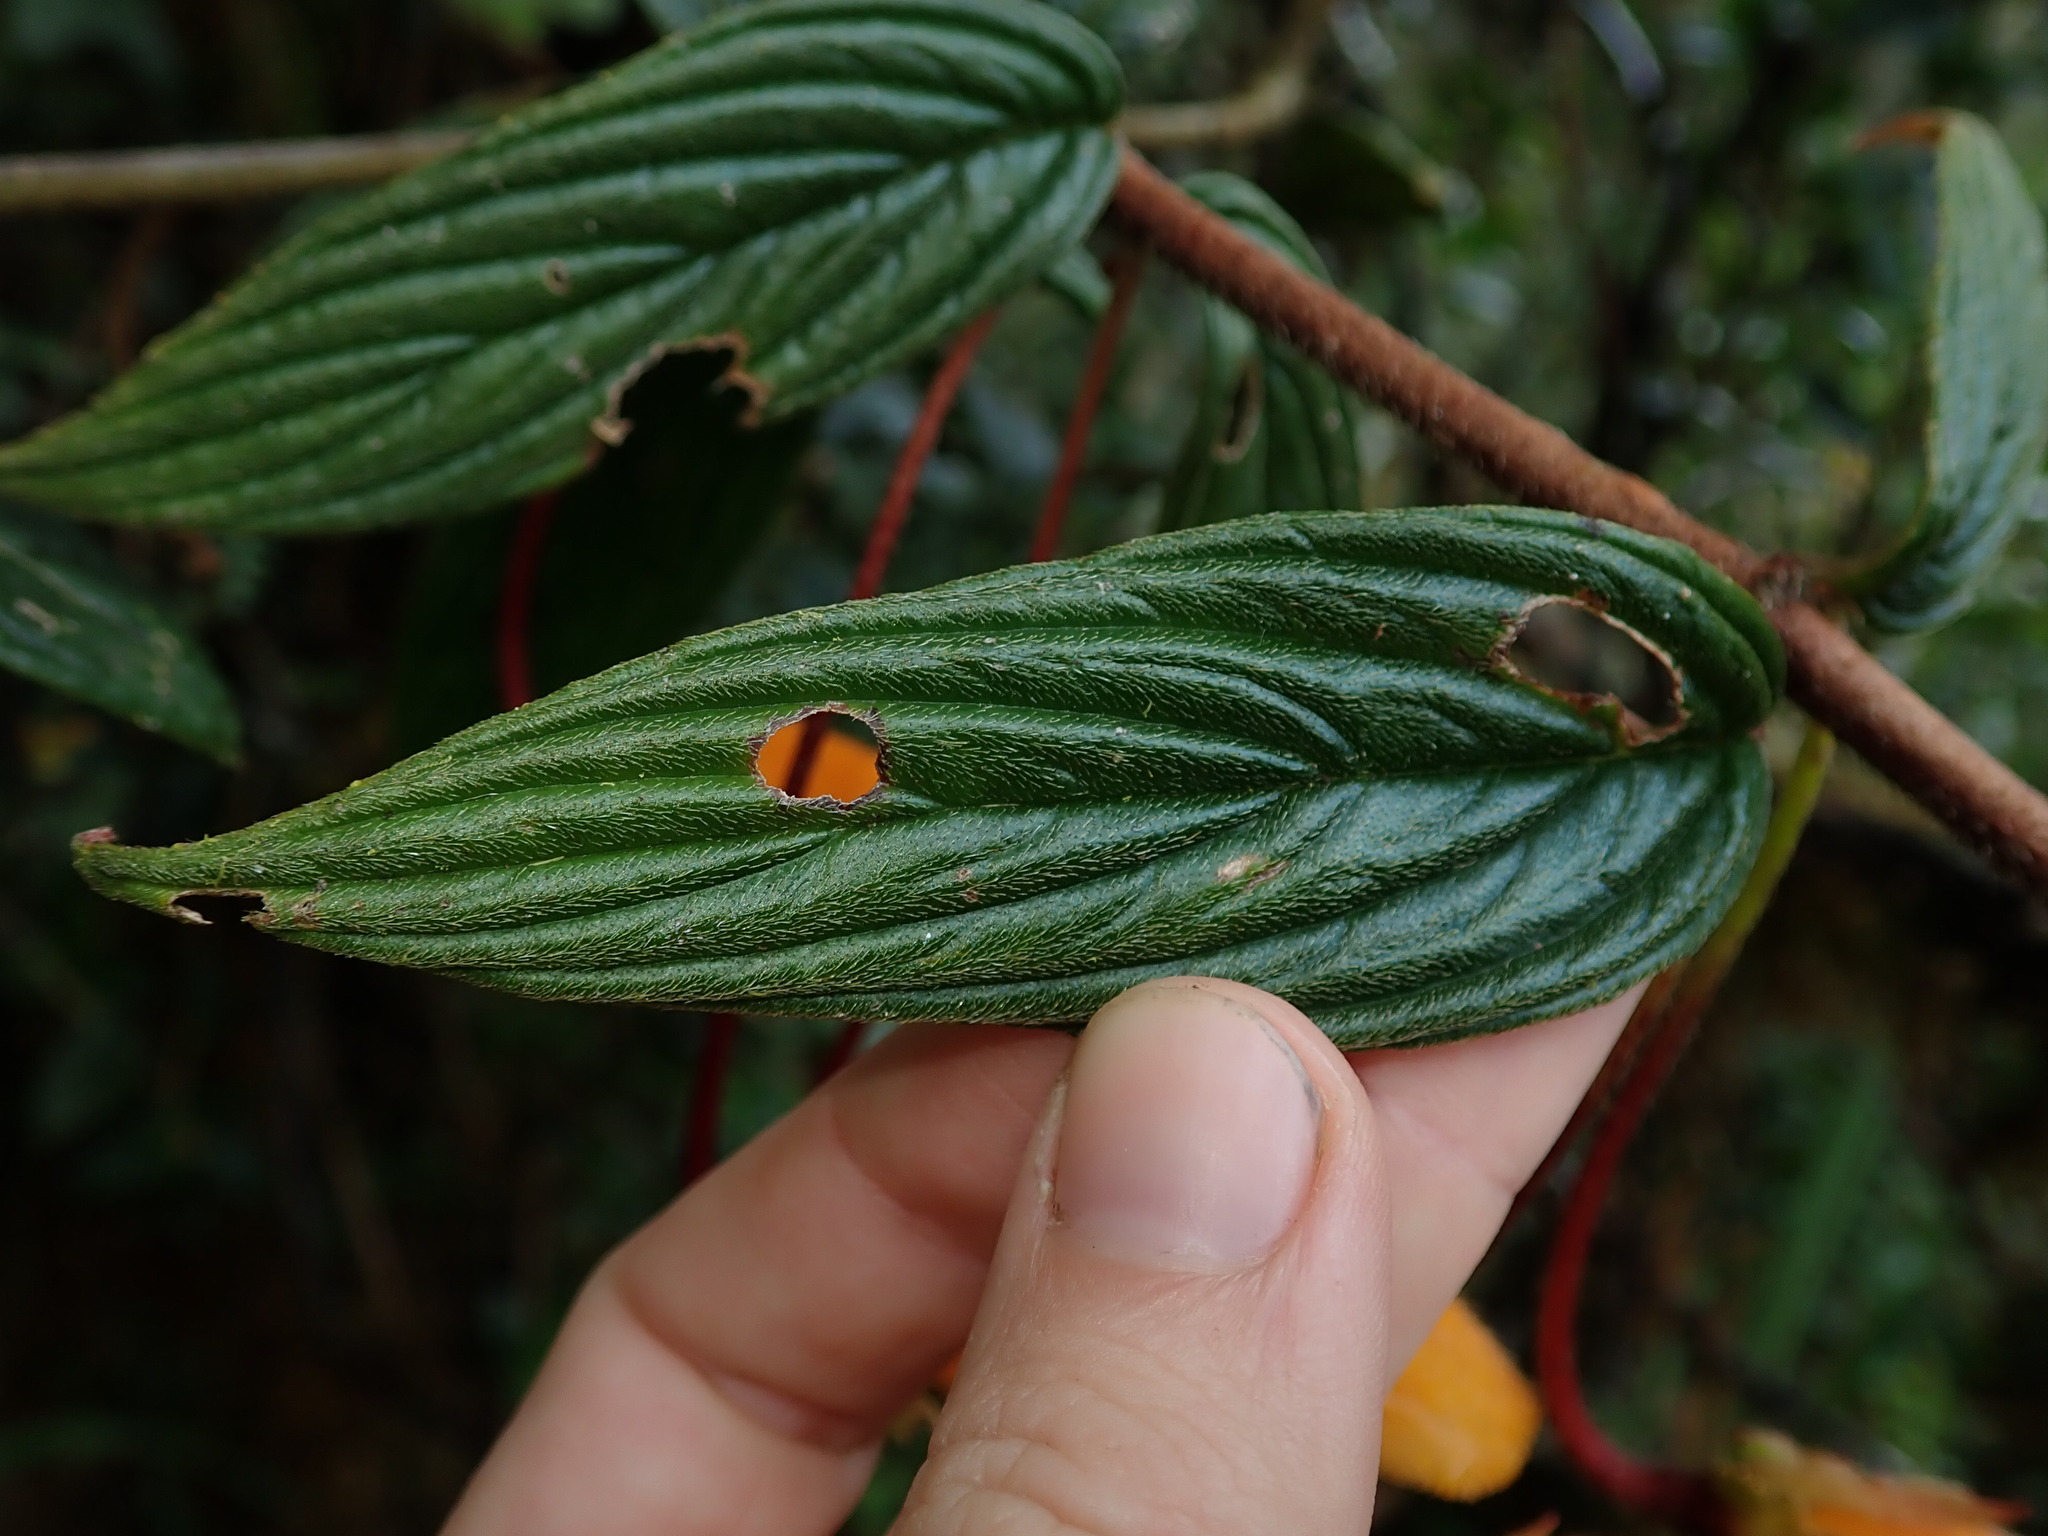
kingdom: Plantae
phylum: Tracheophyta
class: Magnoliopsida
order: Lamiales
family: Gesneriaceae
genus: Columnea
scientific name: Columnea strigosa
